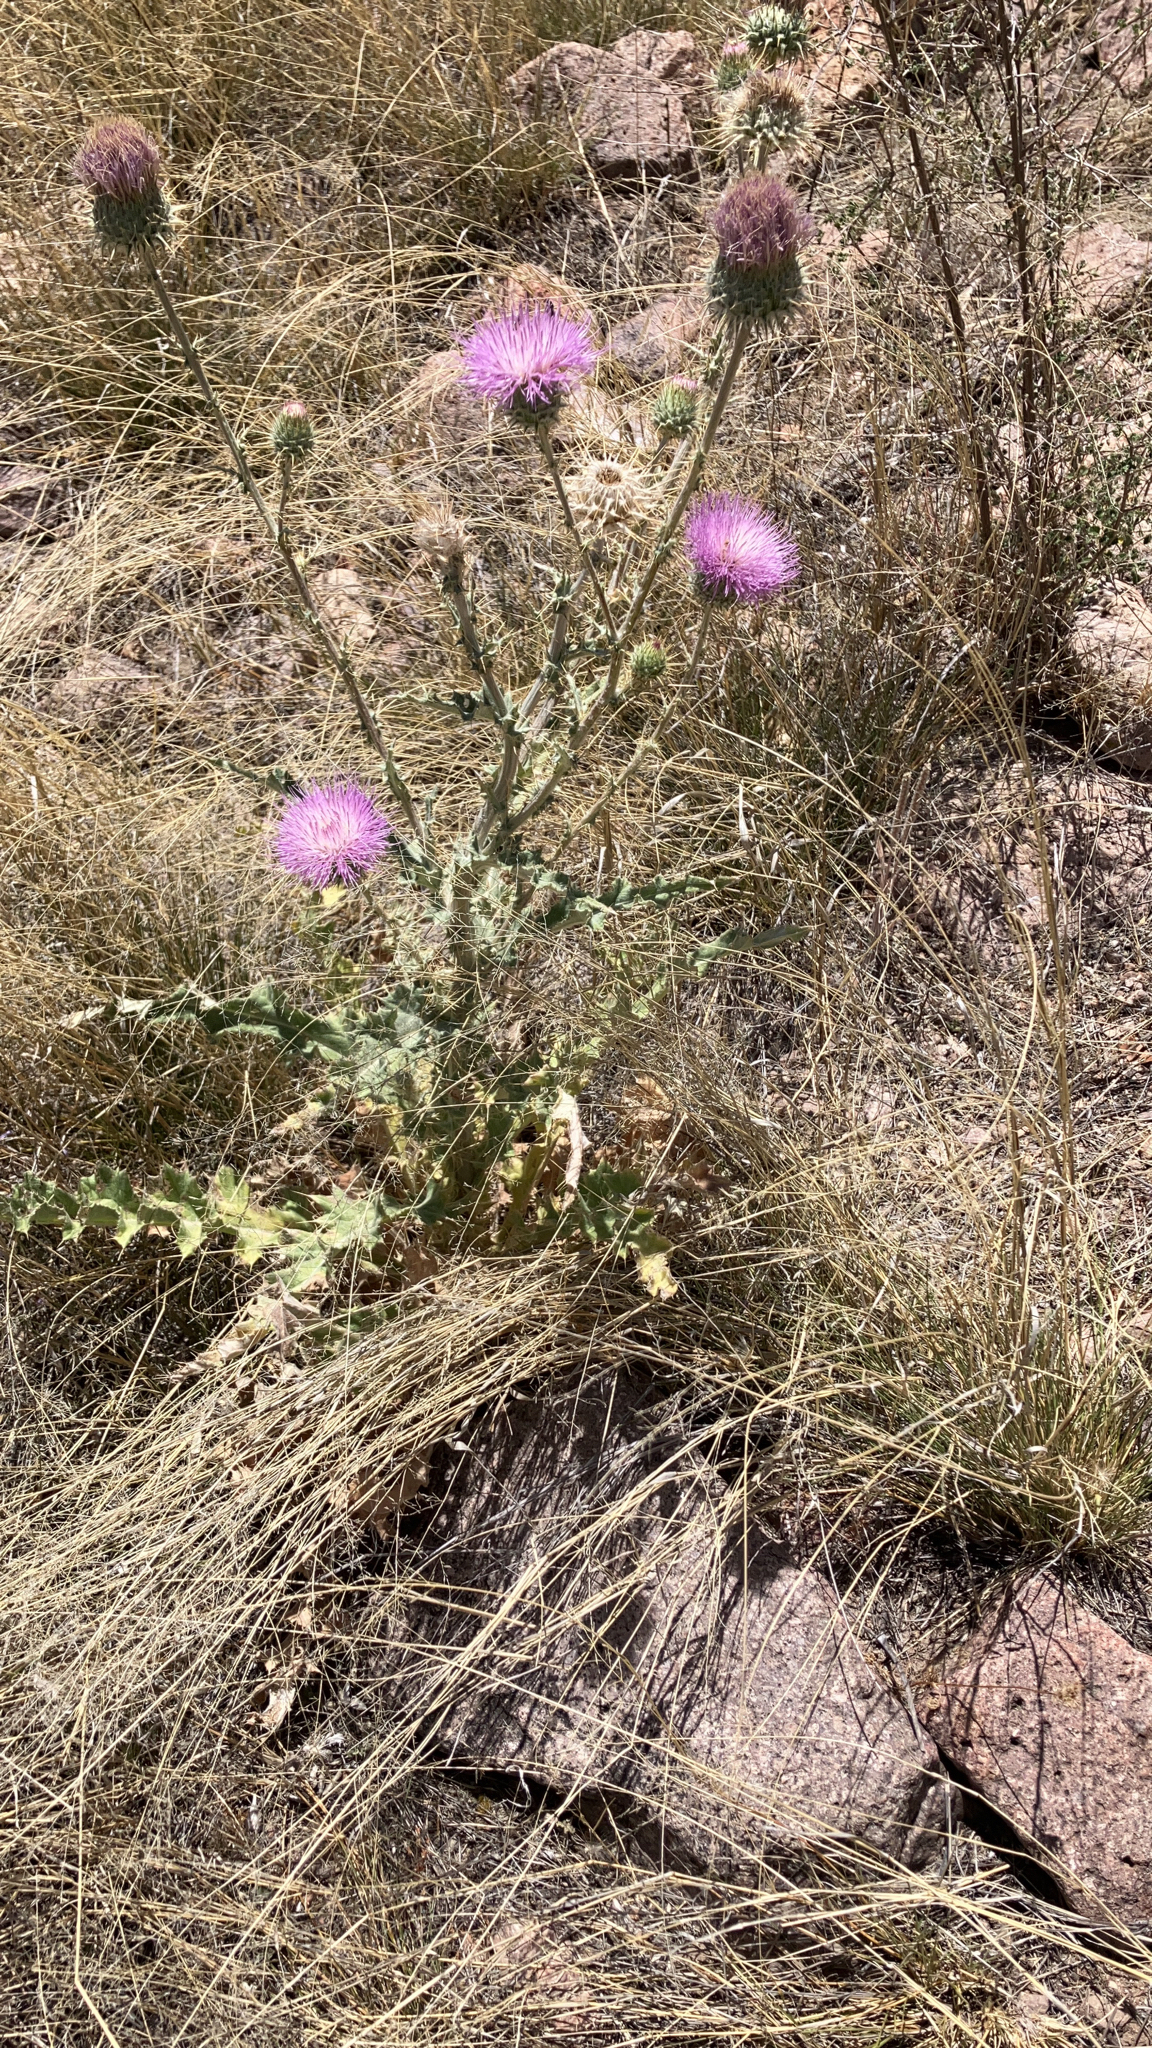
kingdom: Plantae
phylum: Tracheophyta
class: Magnoliopsida
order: Asterales
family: Asteraceae
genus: Cirsium
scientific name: Cirsium neomexicanum
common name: New mexico thistle
